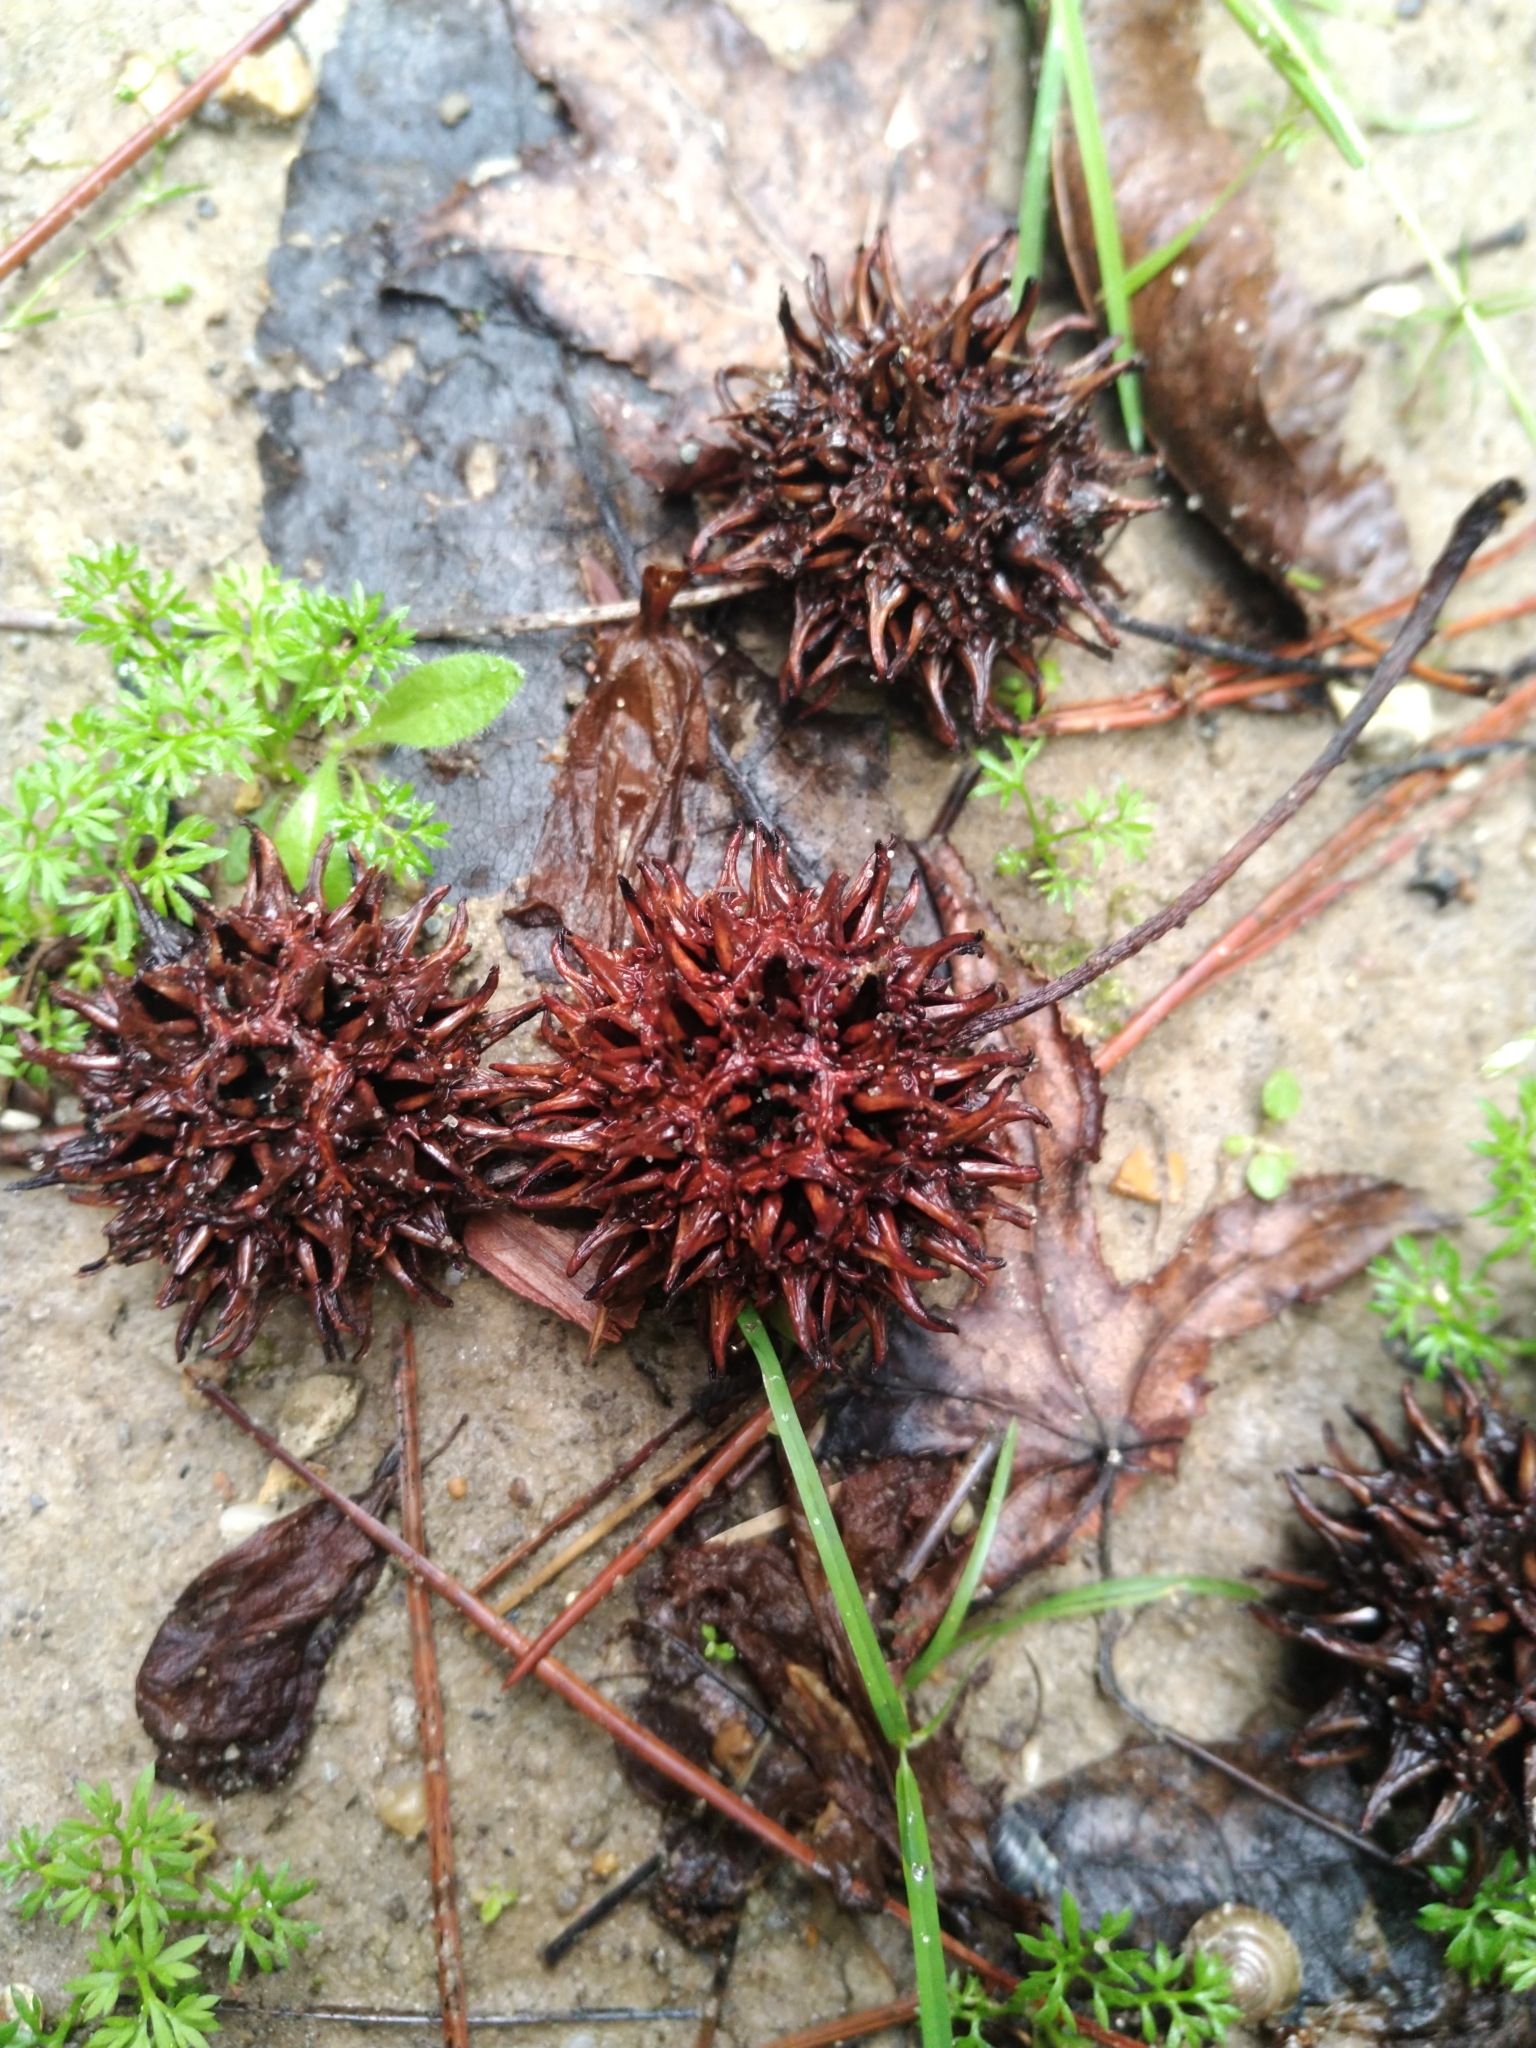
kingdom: Plantae
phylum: Tracheophyta
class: Magnoliopsida
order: Saxifragales
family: Altingiaceae
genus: Liquidambar
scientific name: Liquidambar styraciflua
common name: Sweet gum
